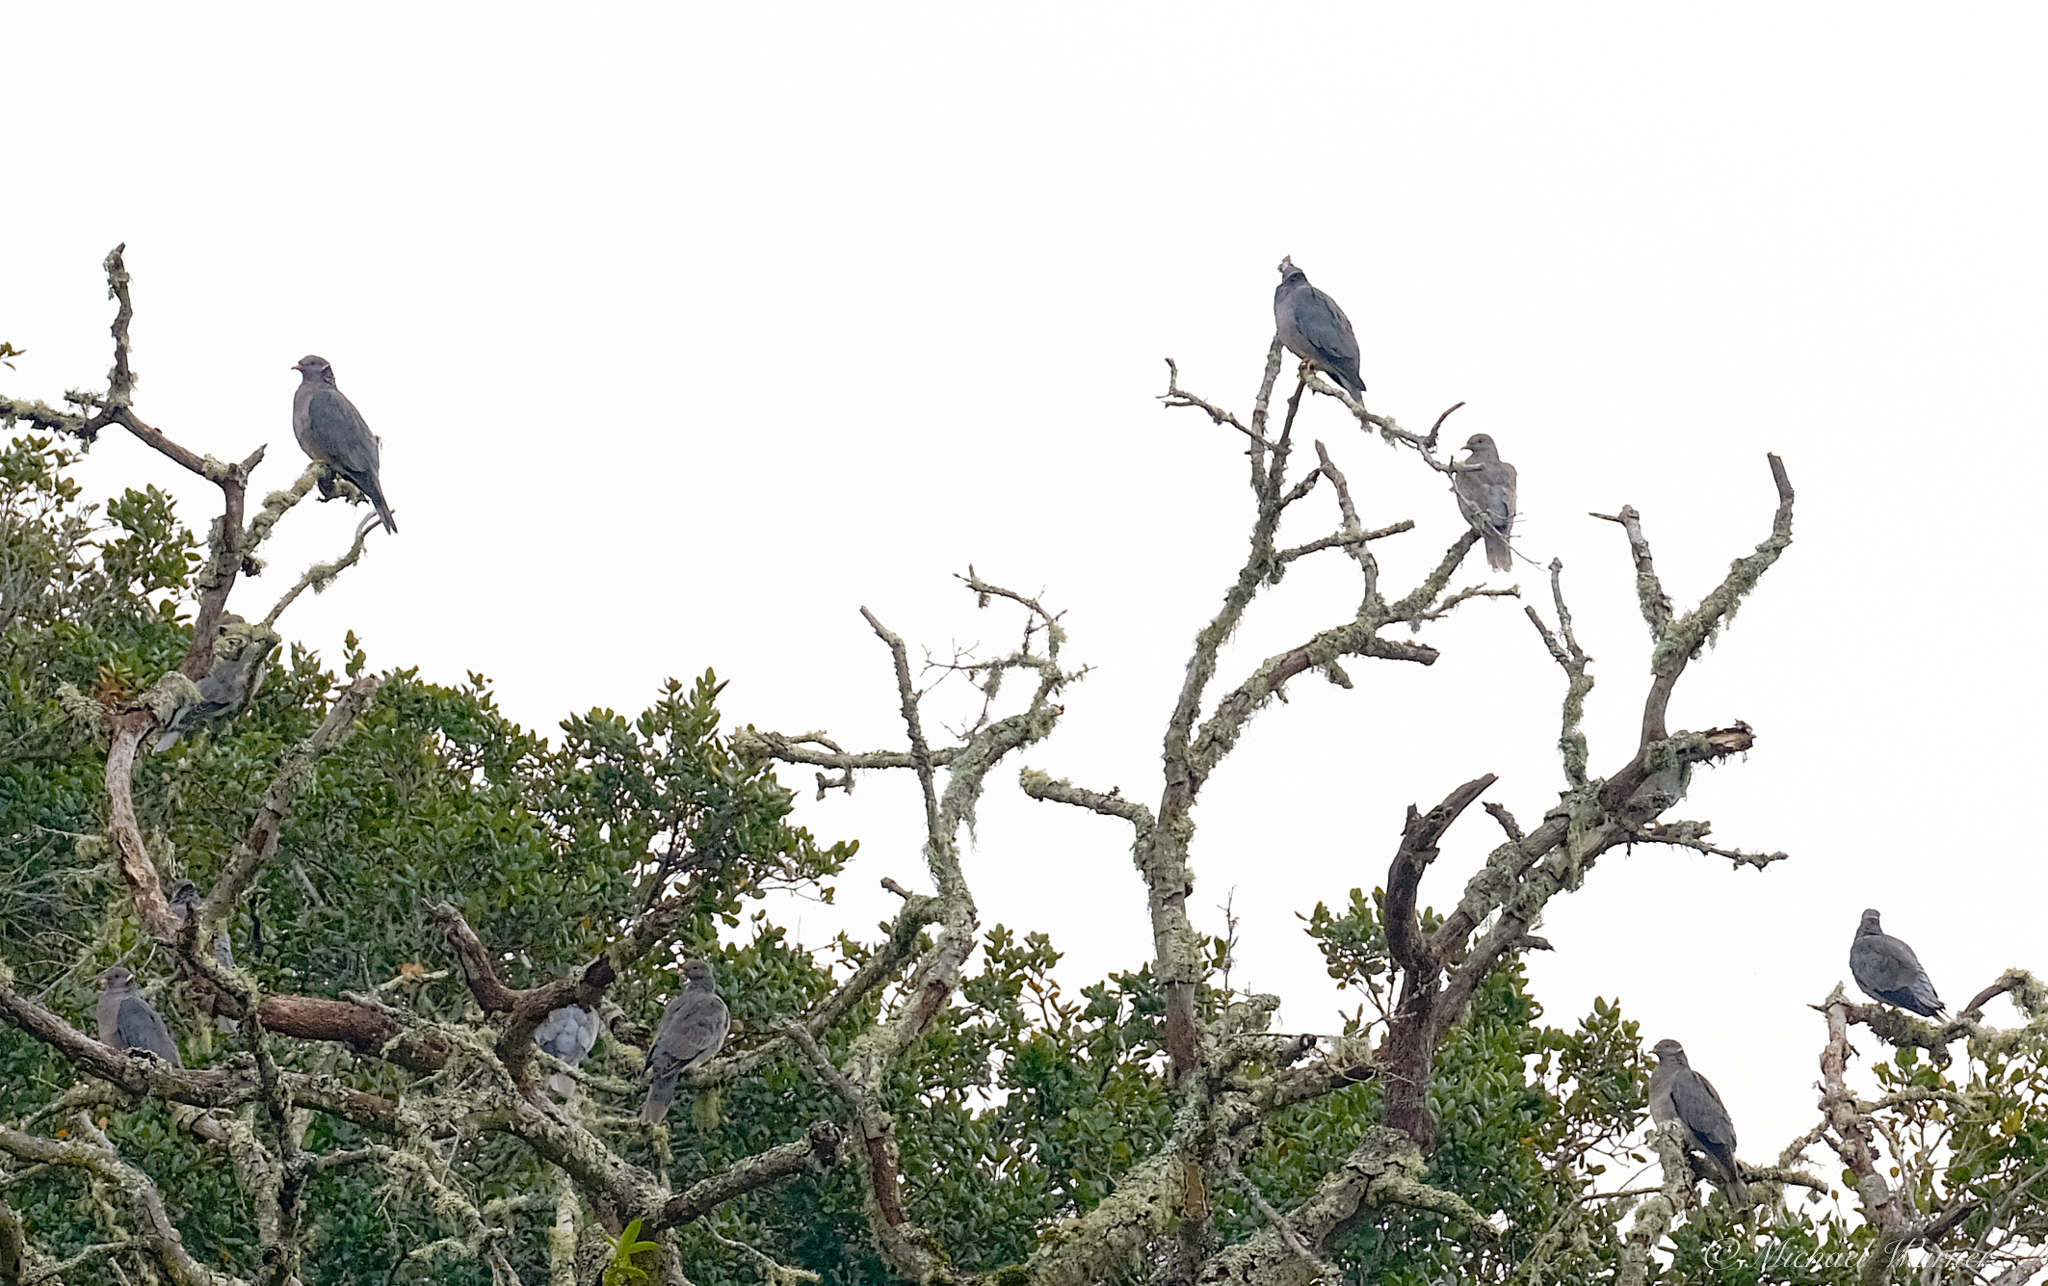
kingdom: Animalia
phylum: Chordata
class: Aves
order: Columbiformes
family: Columbidae
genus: Patagioenas
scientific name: Patagioenas fasciata
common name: Band-tailed pigeon
